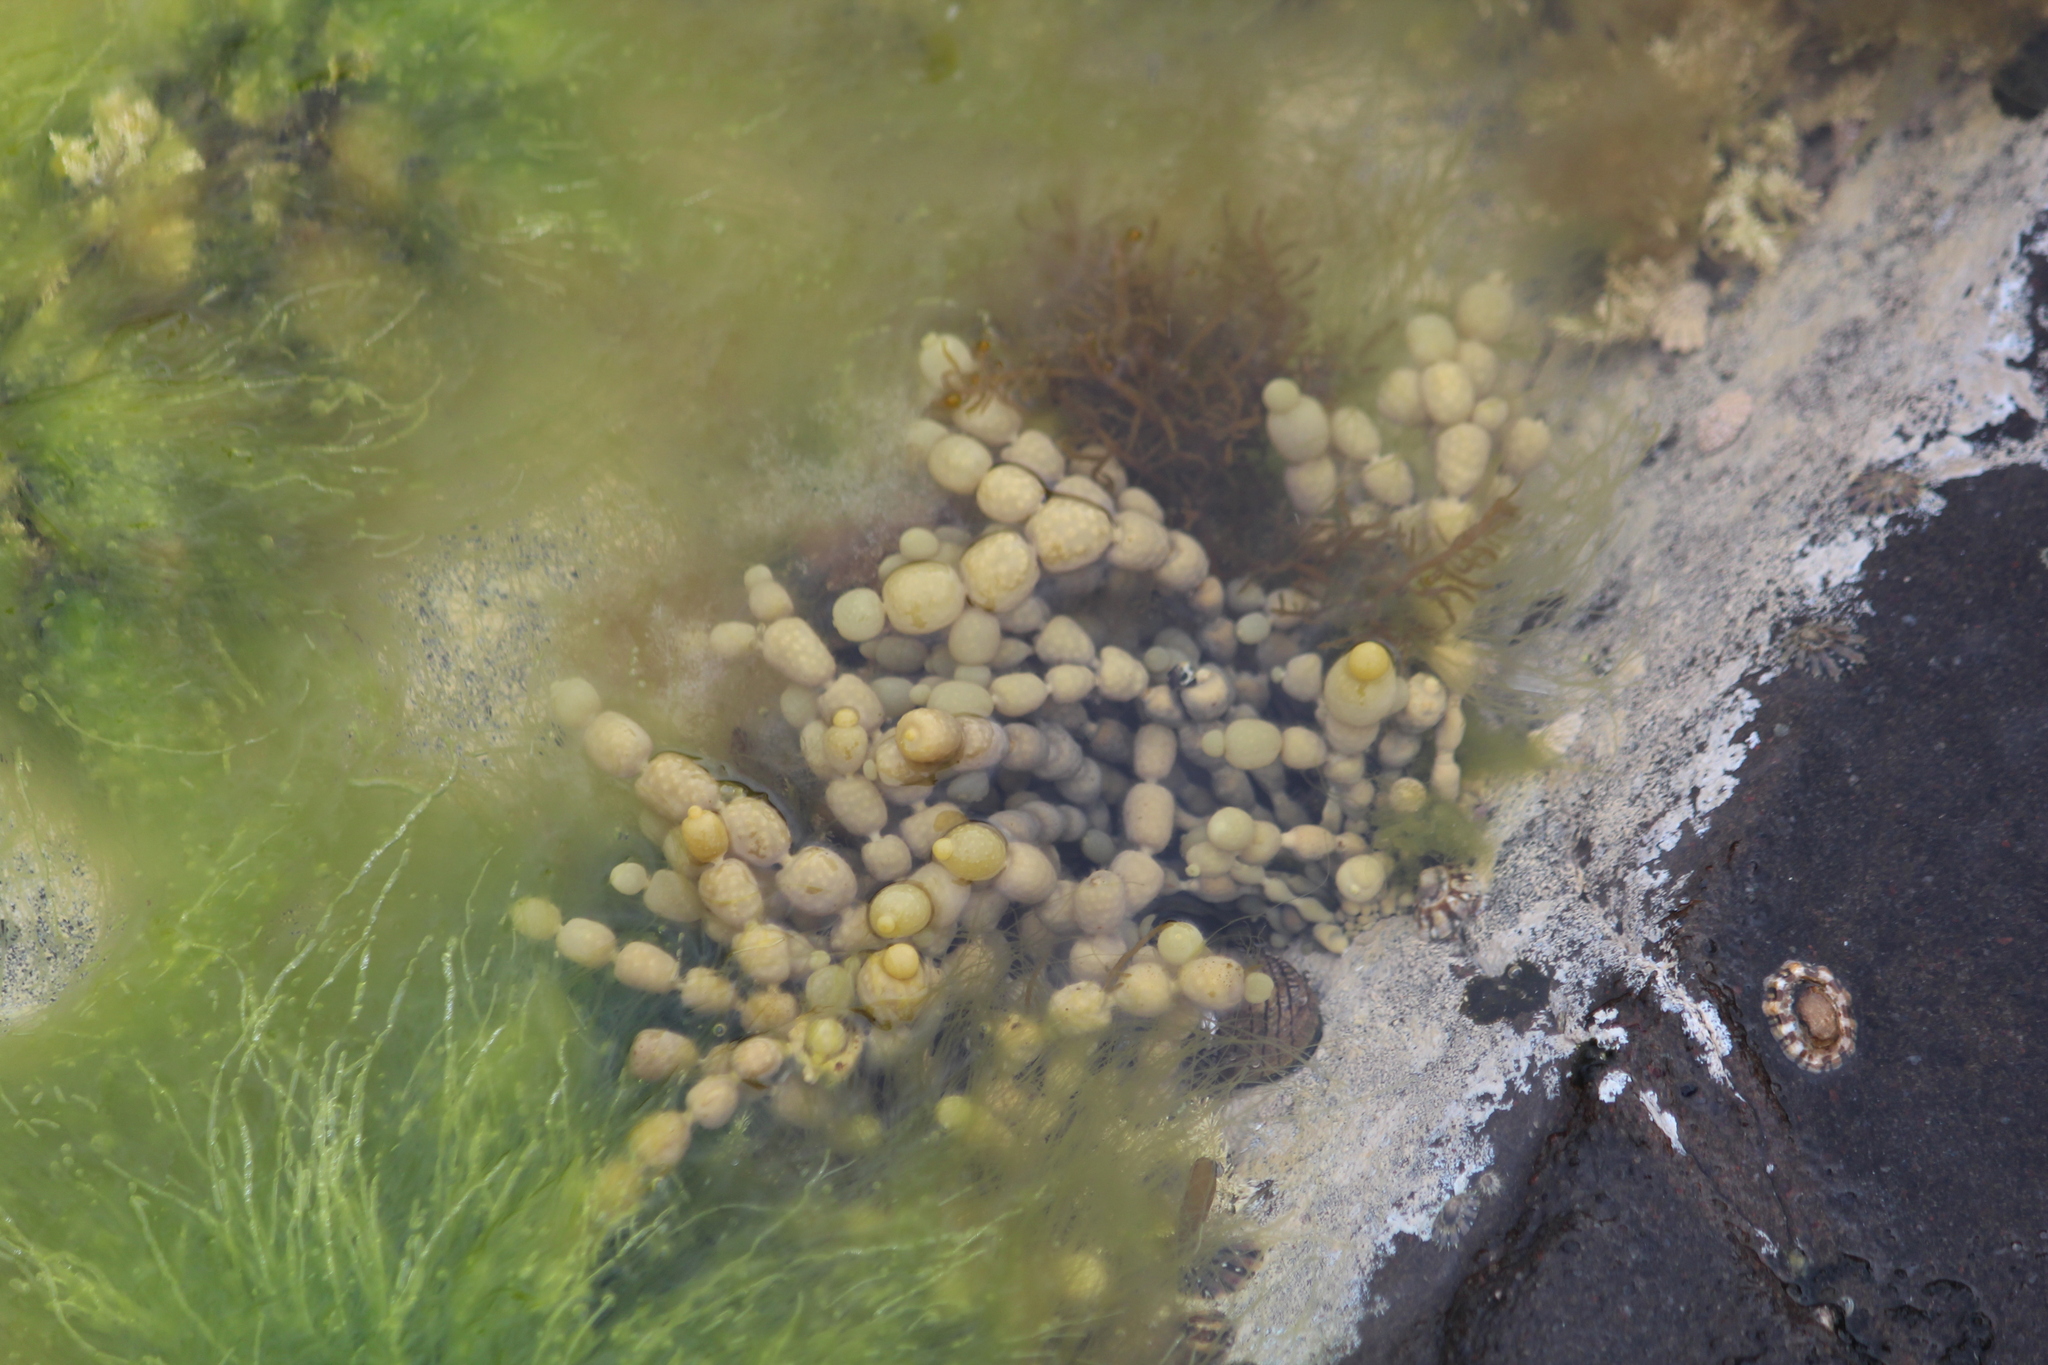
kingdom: Chromista
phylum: Ochrophyta
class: Phaeophyceae
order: Fucales
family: Hormosiraceae
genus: Hormosira
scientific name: Hormosira banksii
